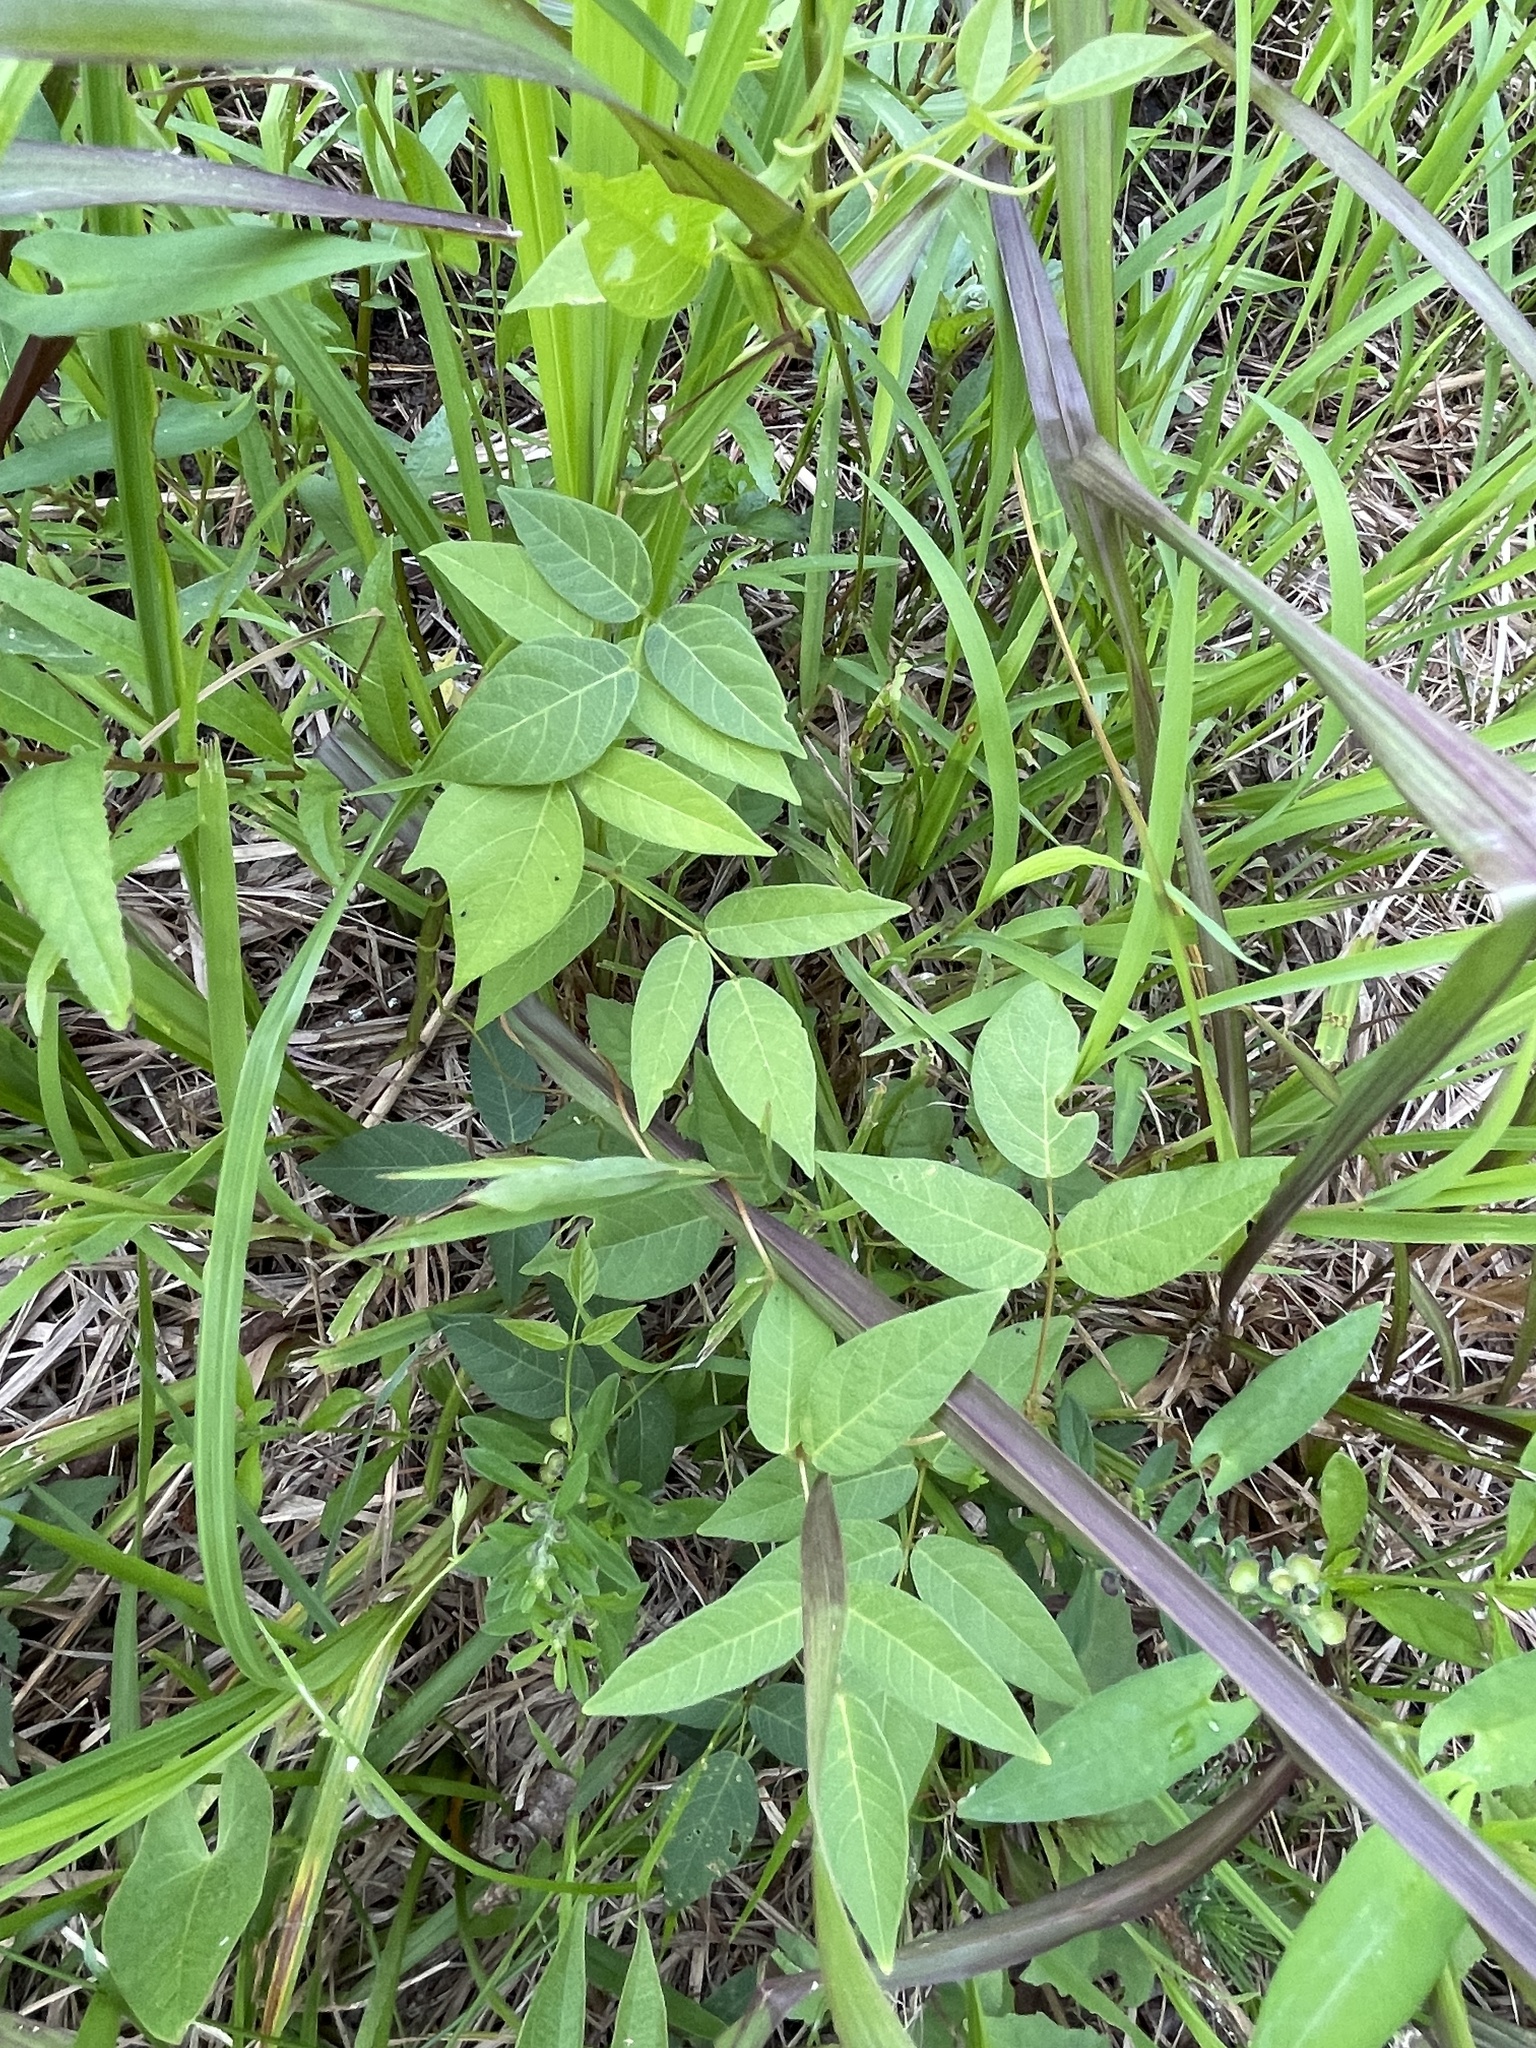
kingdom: Plantae
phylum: Tracheophyta
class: Magnoliopsida
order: Fabales
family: Fabaceae
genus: Apios
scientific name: Apios americana
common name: American potato-bean
